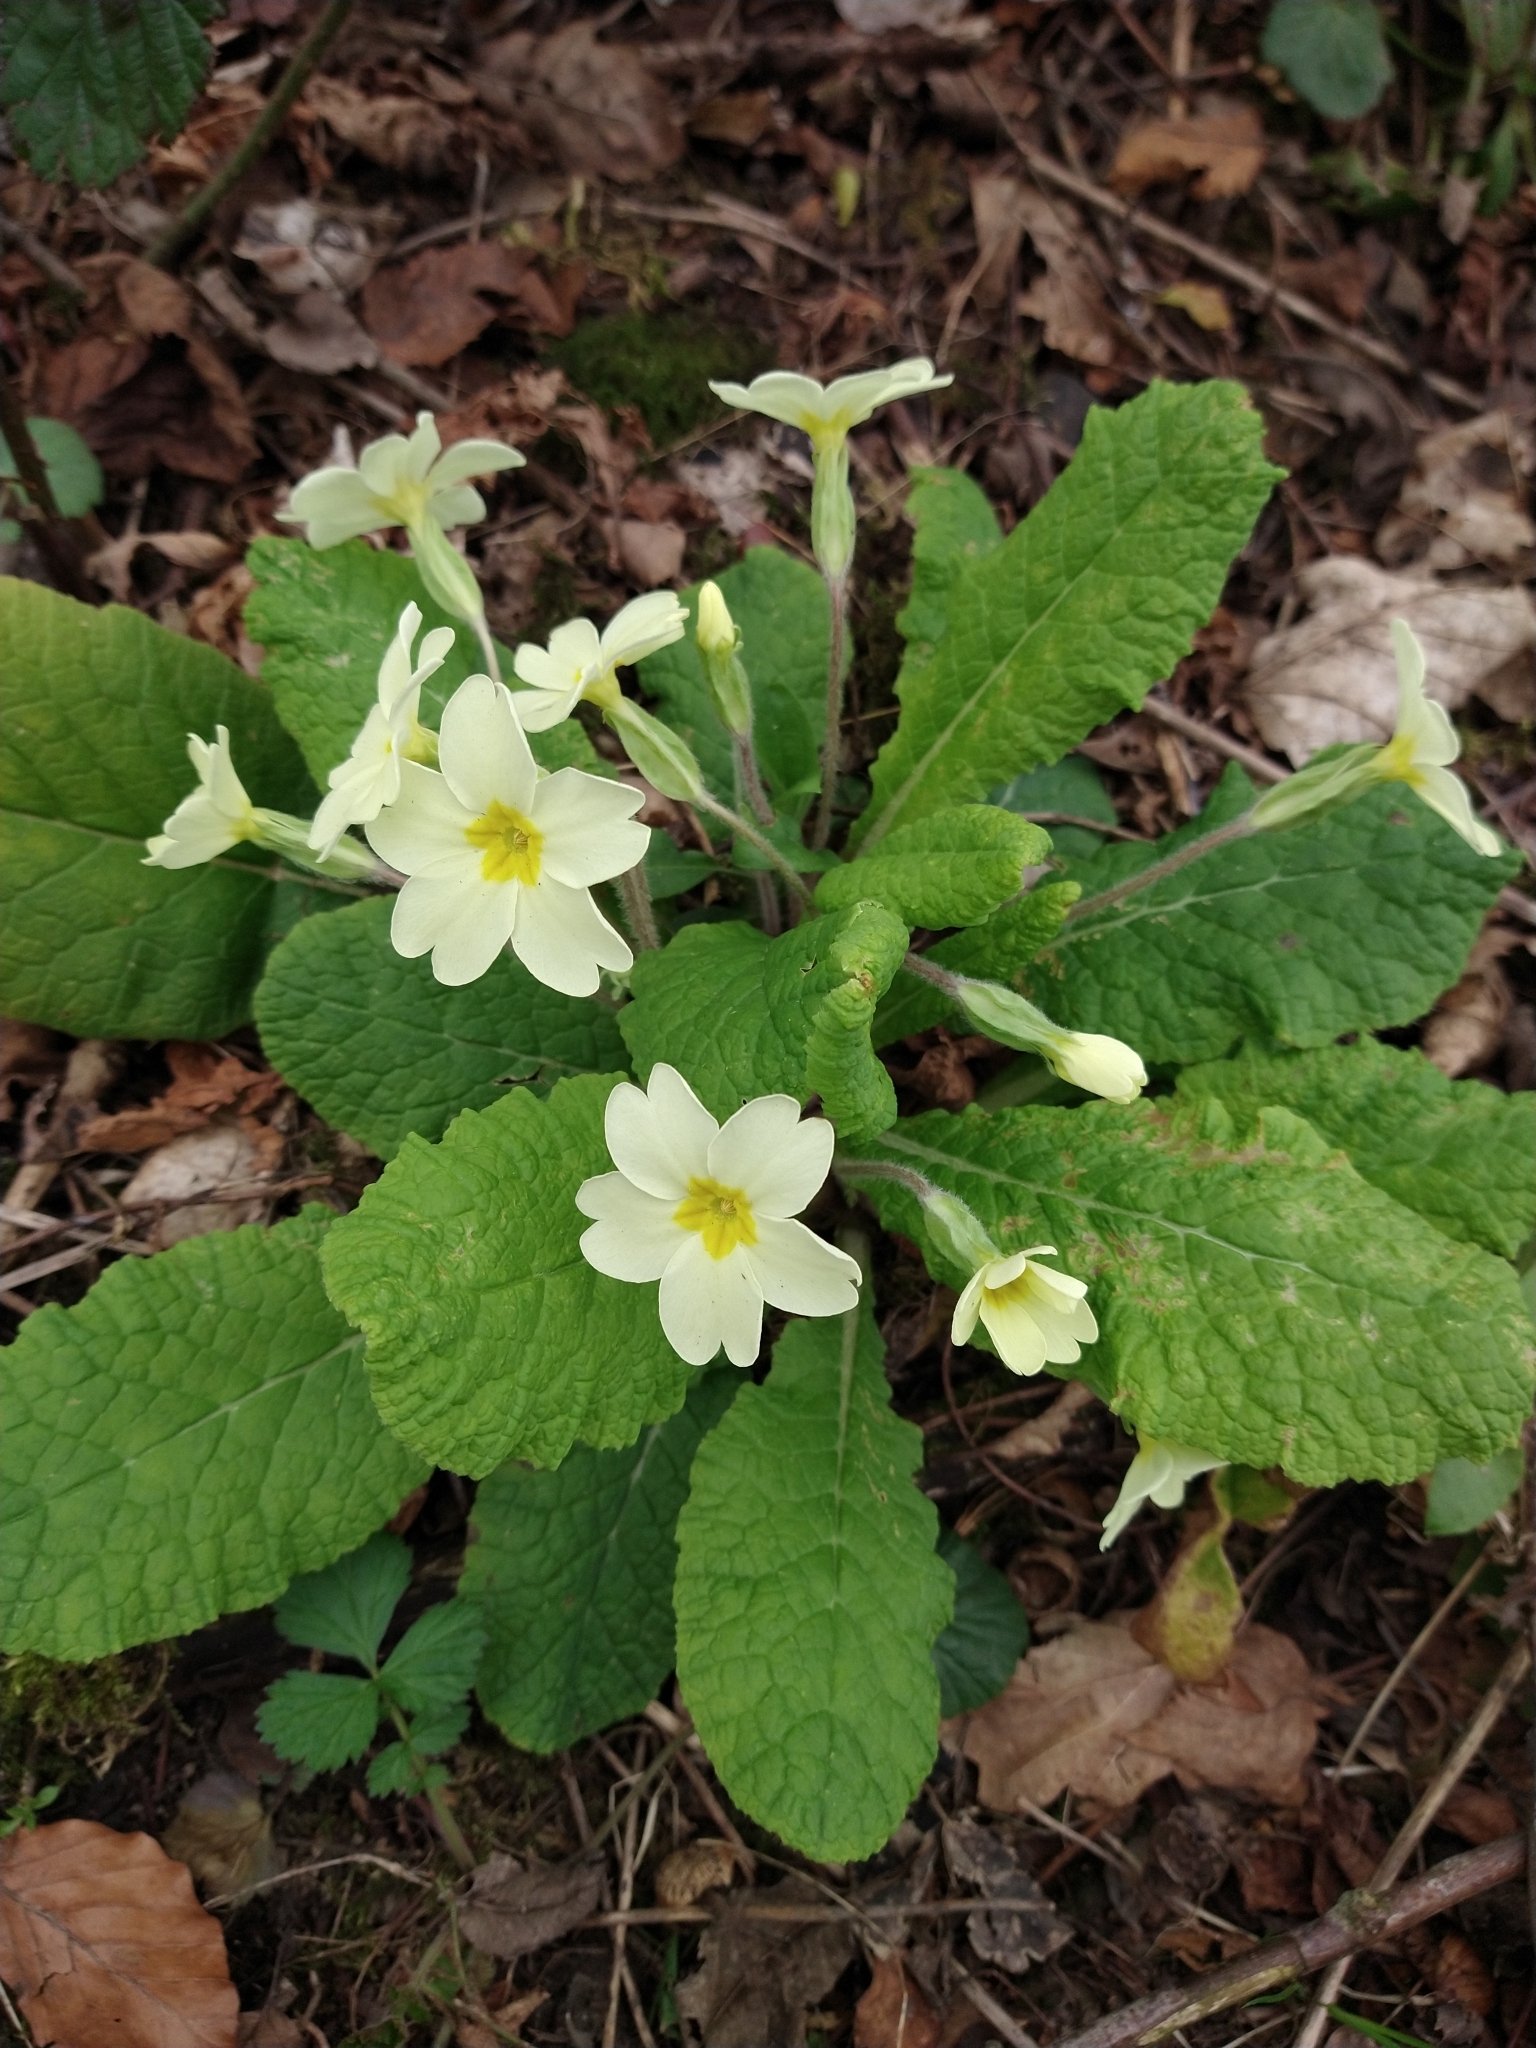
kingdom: Plantae
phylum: Tracheophyta
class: Magnoliopsida
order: Ericales
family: Primulaceae
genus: Primula
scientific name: Primula vulgaris
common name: Primrose
